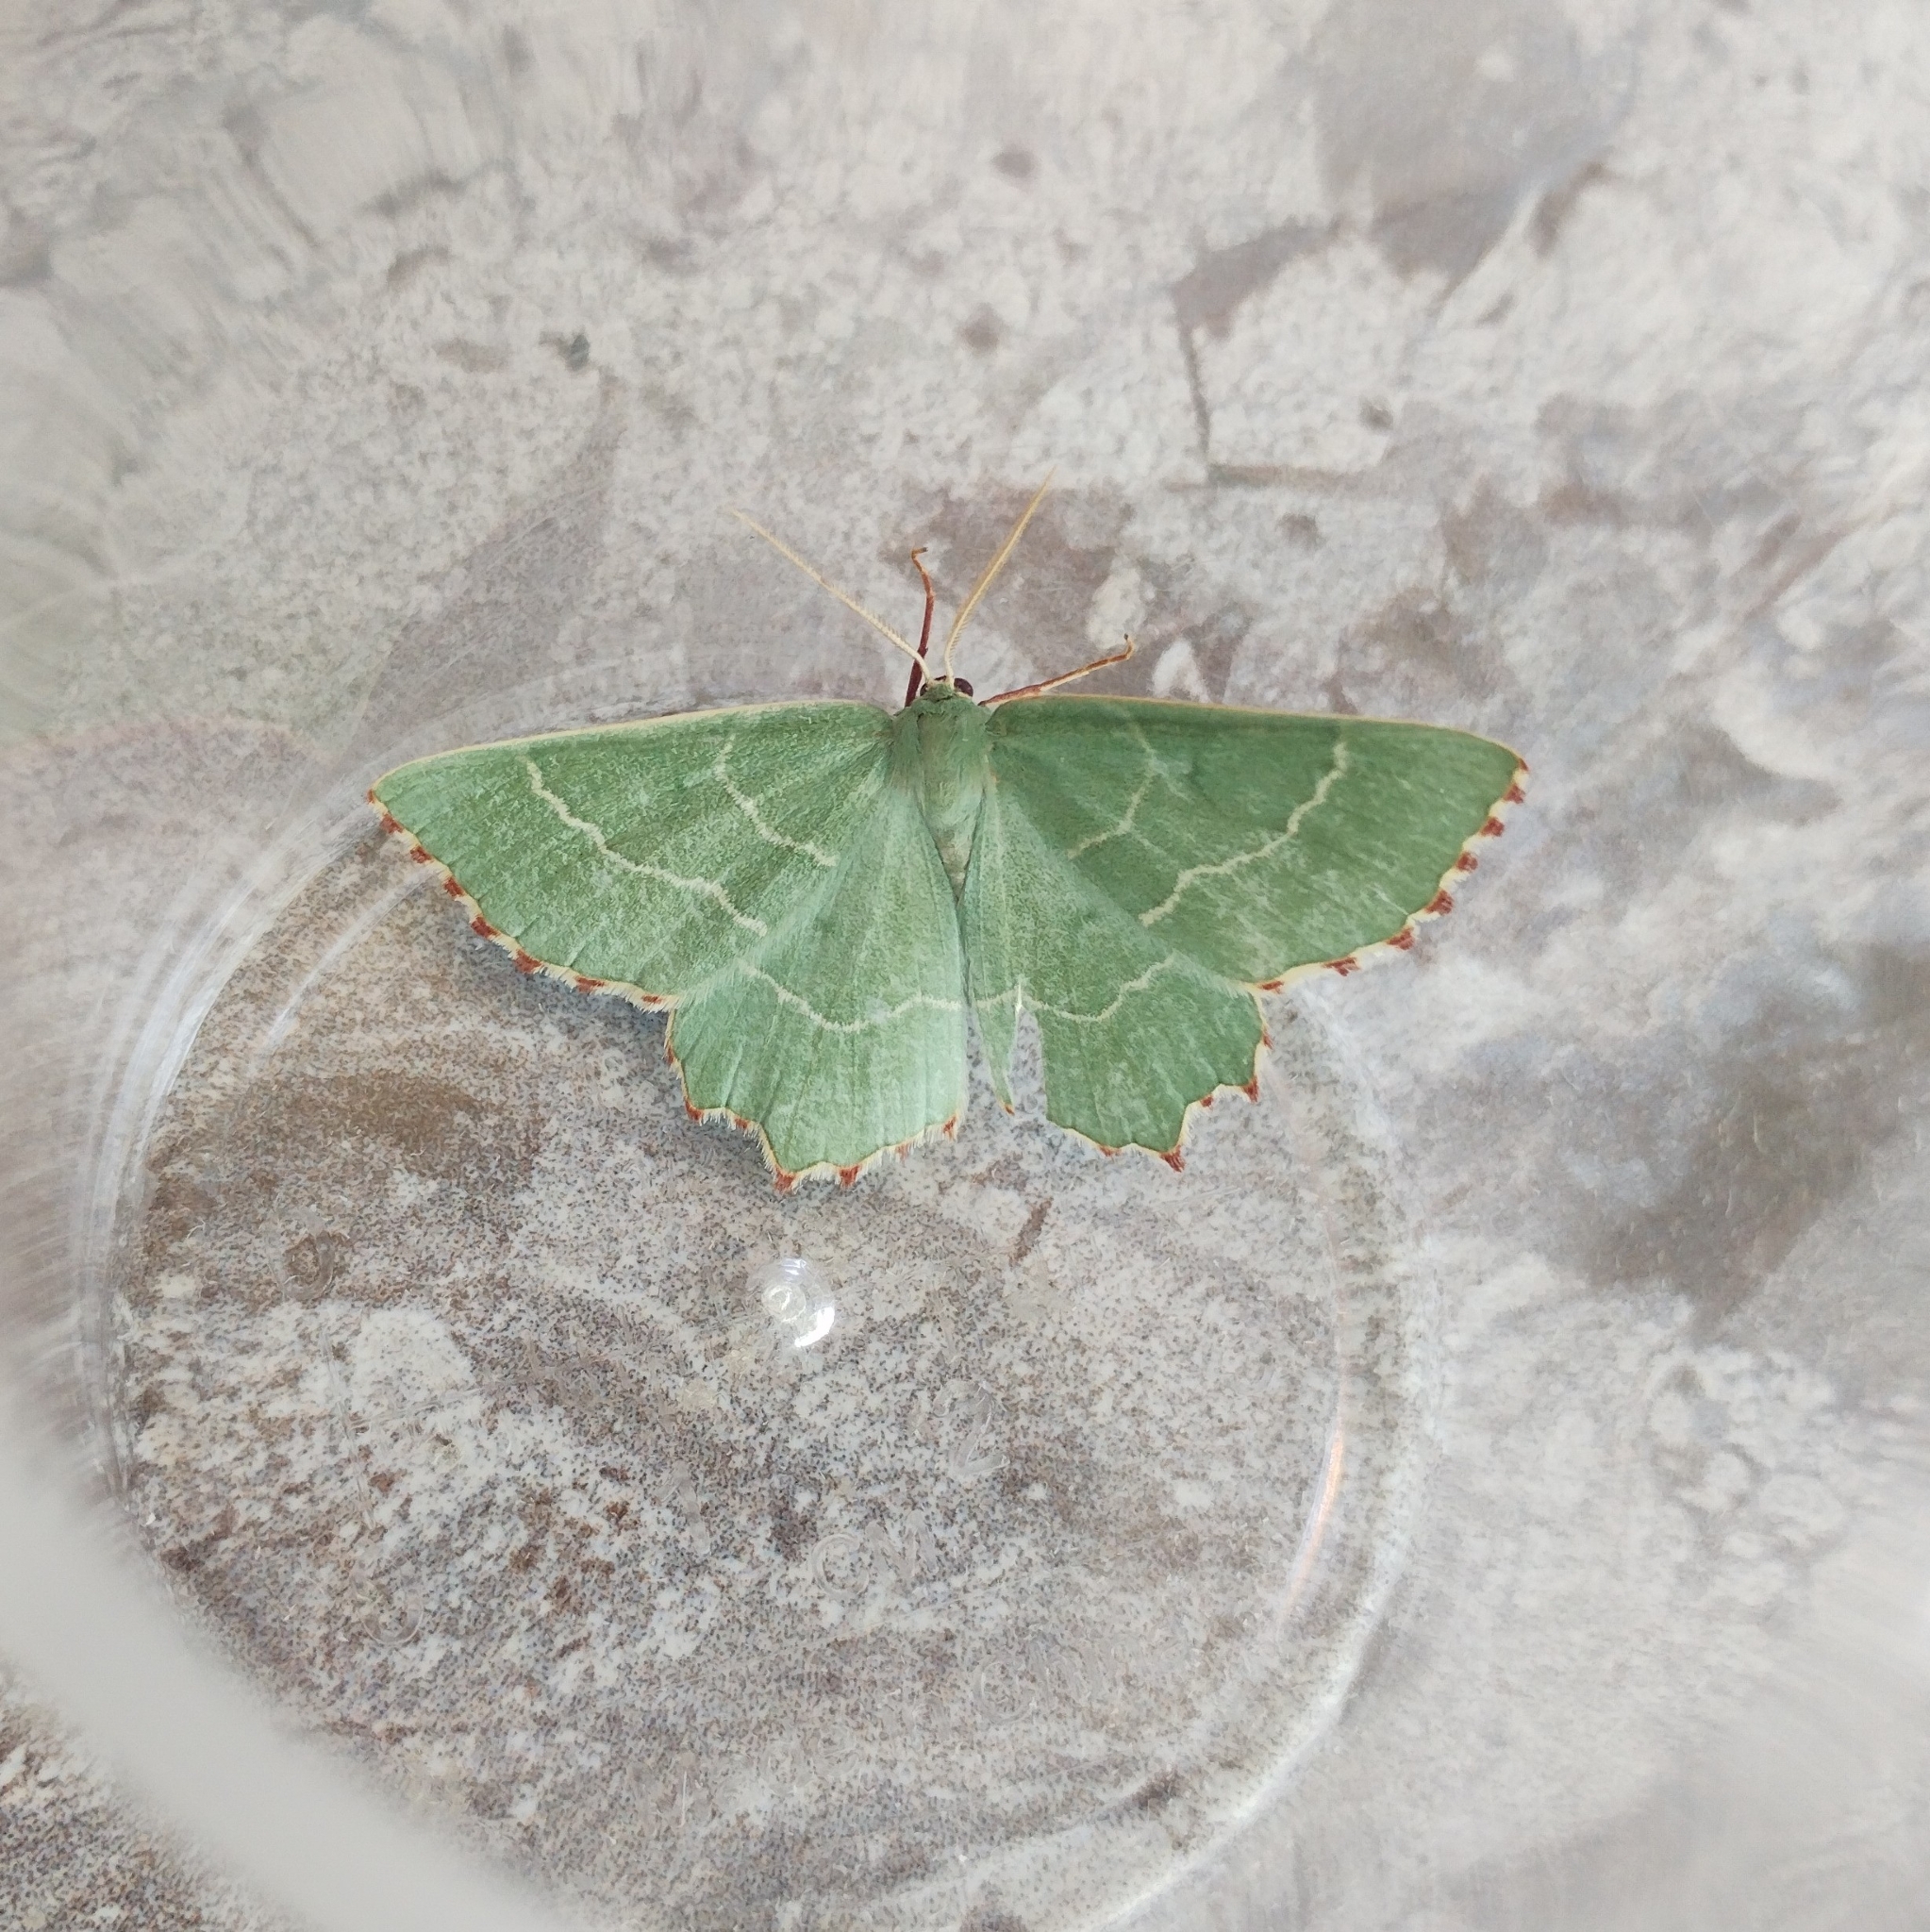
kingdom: Animalia
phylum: Arthropoda
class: Insecta
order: Lepidoptera
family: Geometridae
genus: Thalera
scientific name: Thalera fimbrialis
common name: Sussex emerald
